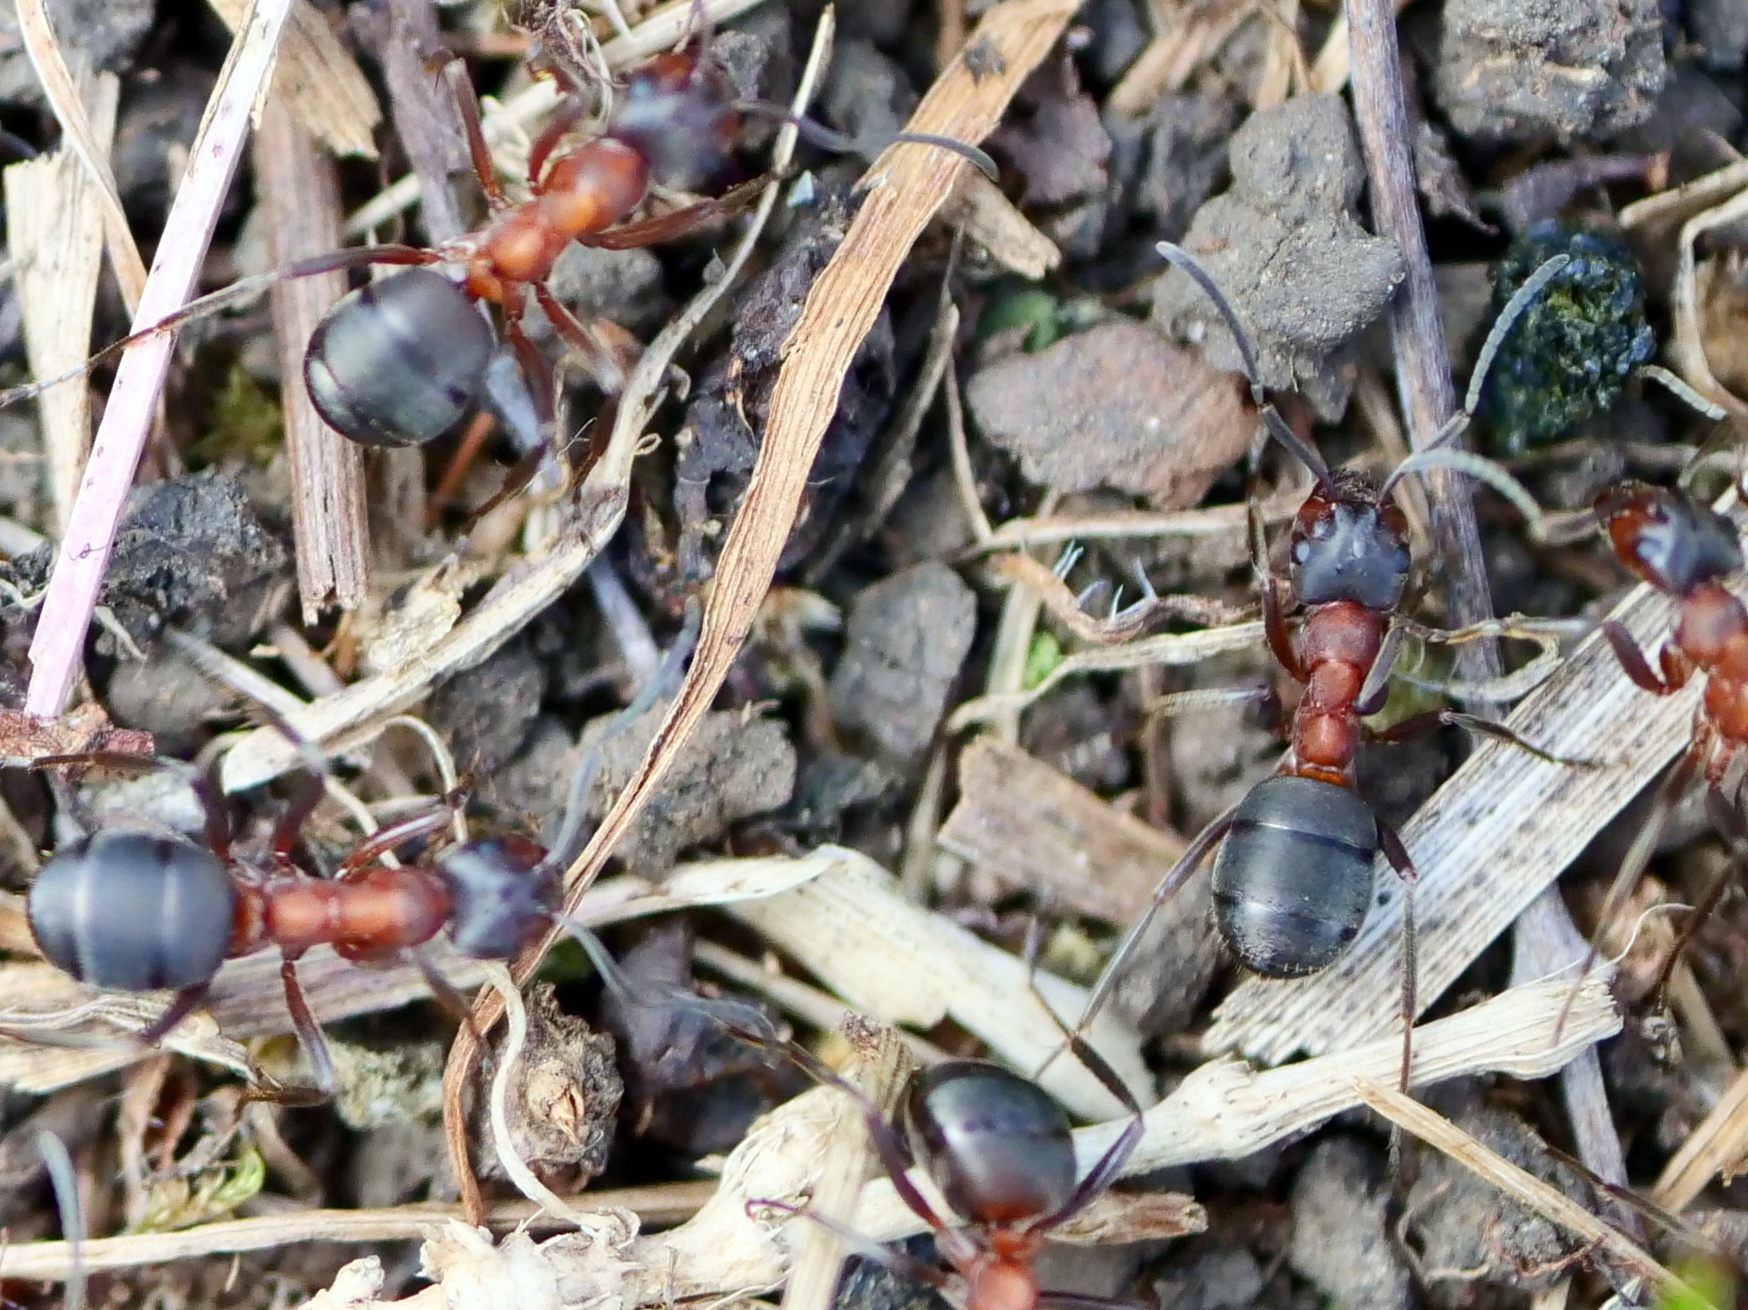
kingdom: Animalia
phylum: Arthropoda
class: Insecta
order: Hymenoptera
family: Formicidae
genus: Formica
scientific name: Formica
